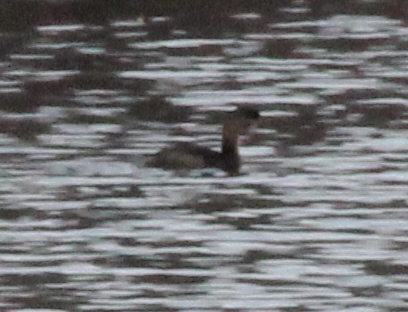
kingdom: Animalia
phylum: Chordata
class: Aves
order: Podicipediformes
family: Podicipedidae
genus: Podilymbus
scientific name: Podilymbus podiceps
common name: Pied-billed grebe
